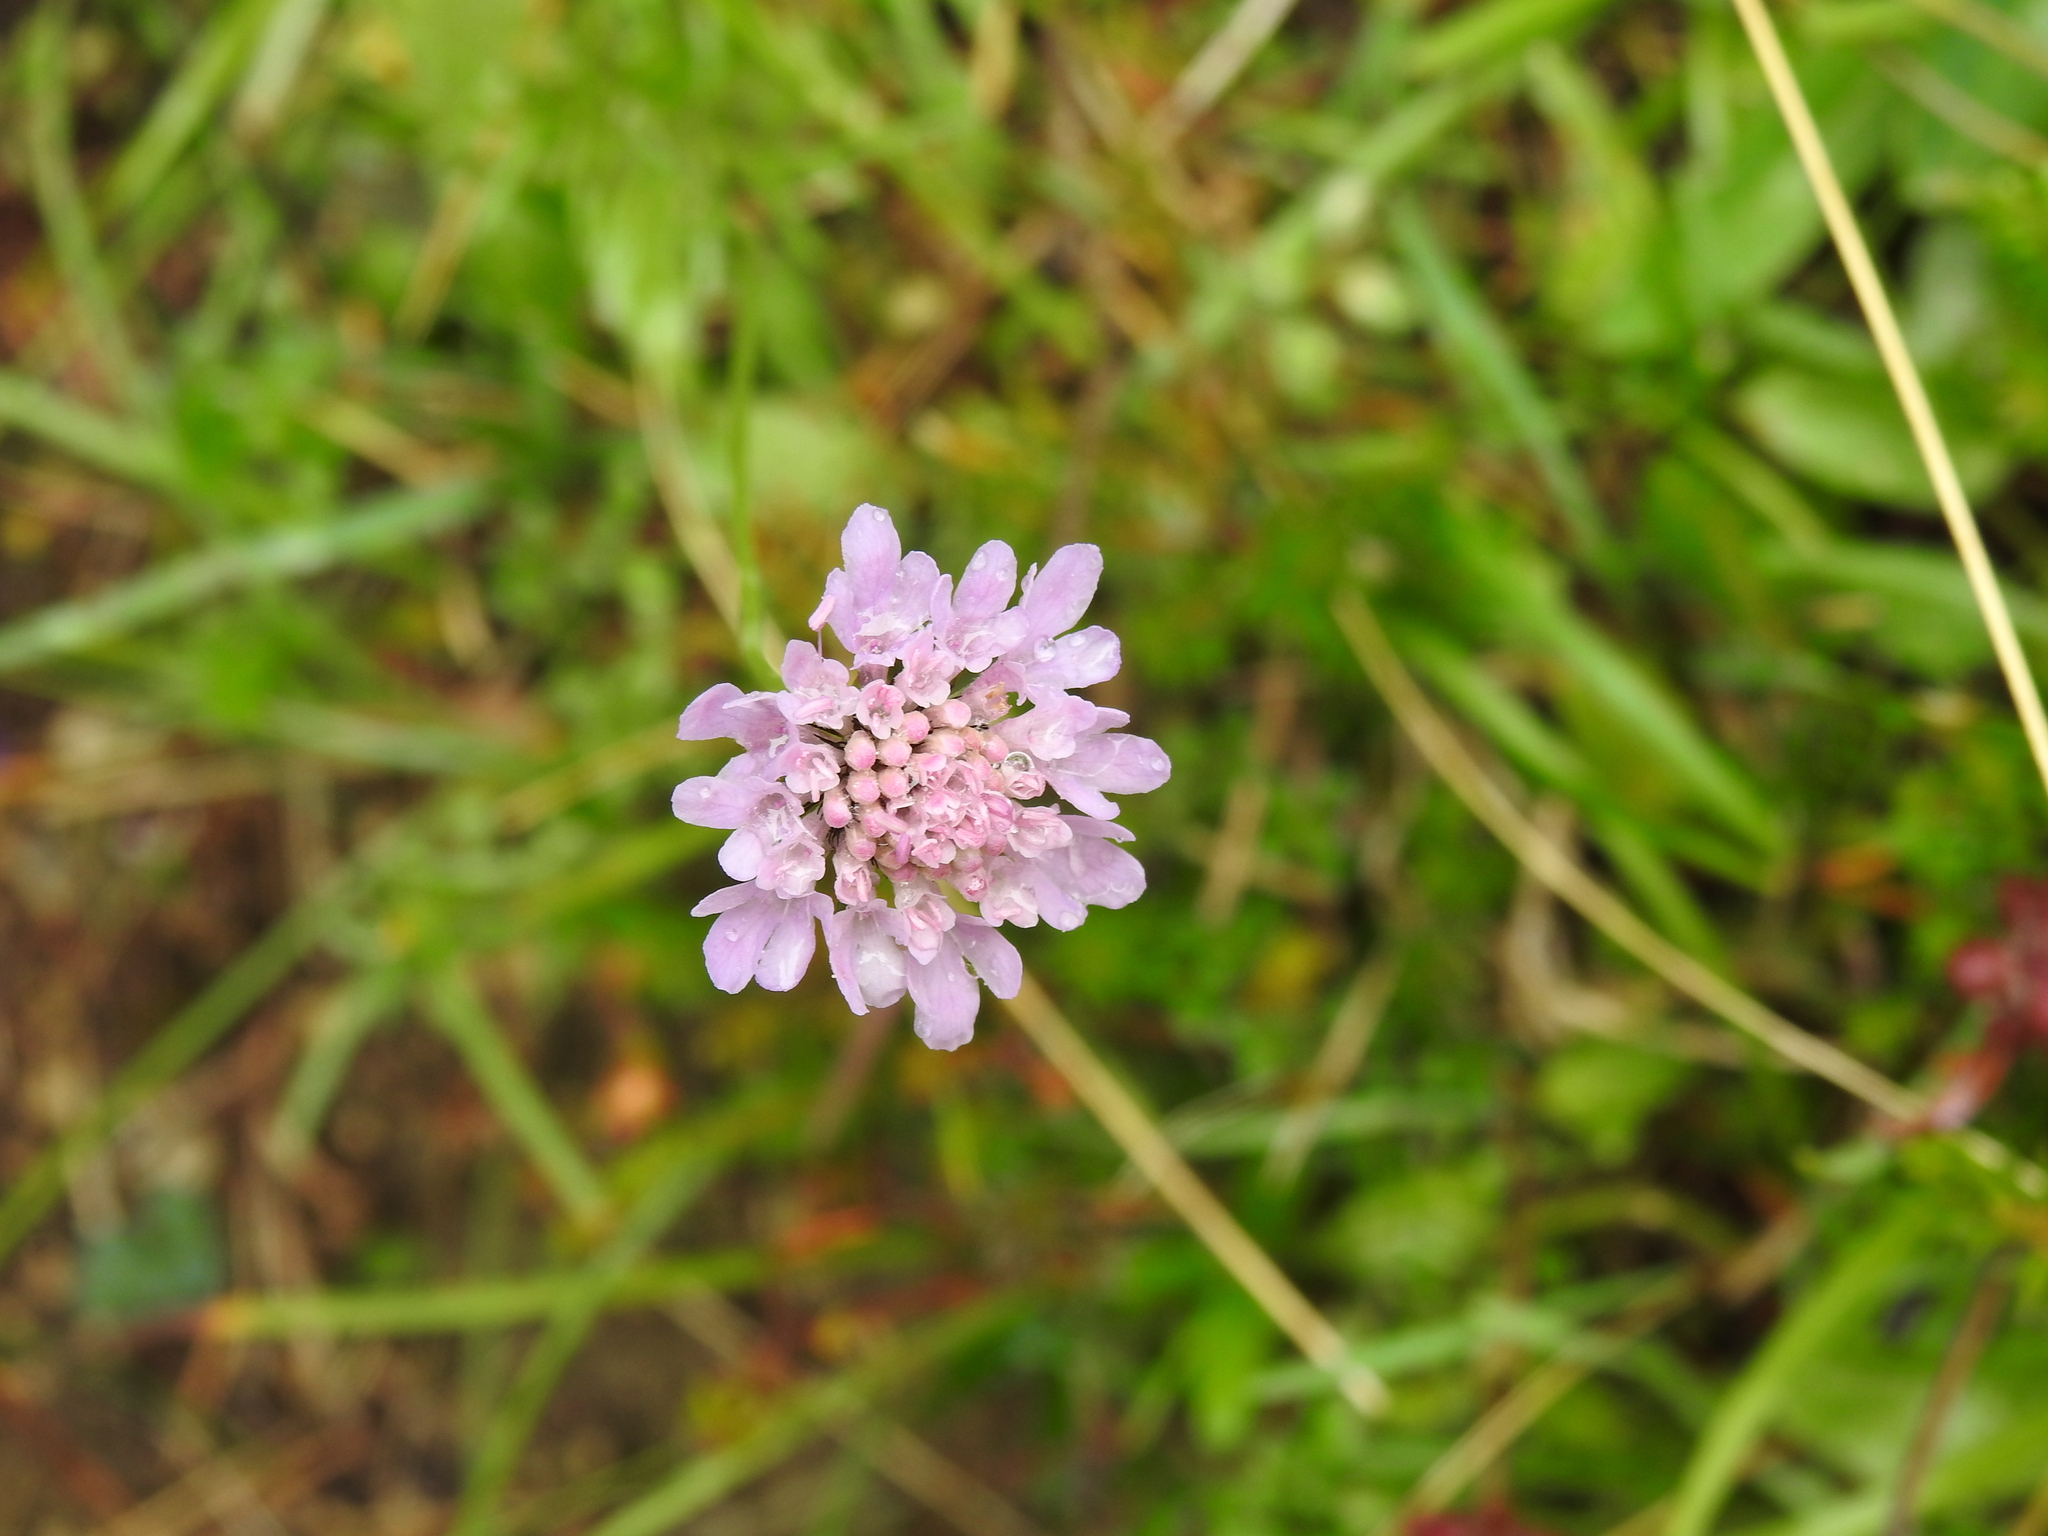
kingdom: Plantae
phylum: Tracheophyta
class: Magnoliopsida
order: Dipsacales
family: Caprifoliaceae
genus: Scabiosa
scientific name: Scabiosa lucida
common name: Shining scabious
